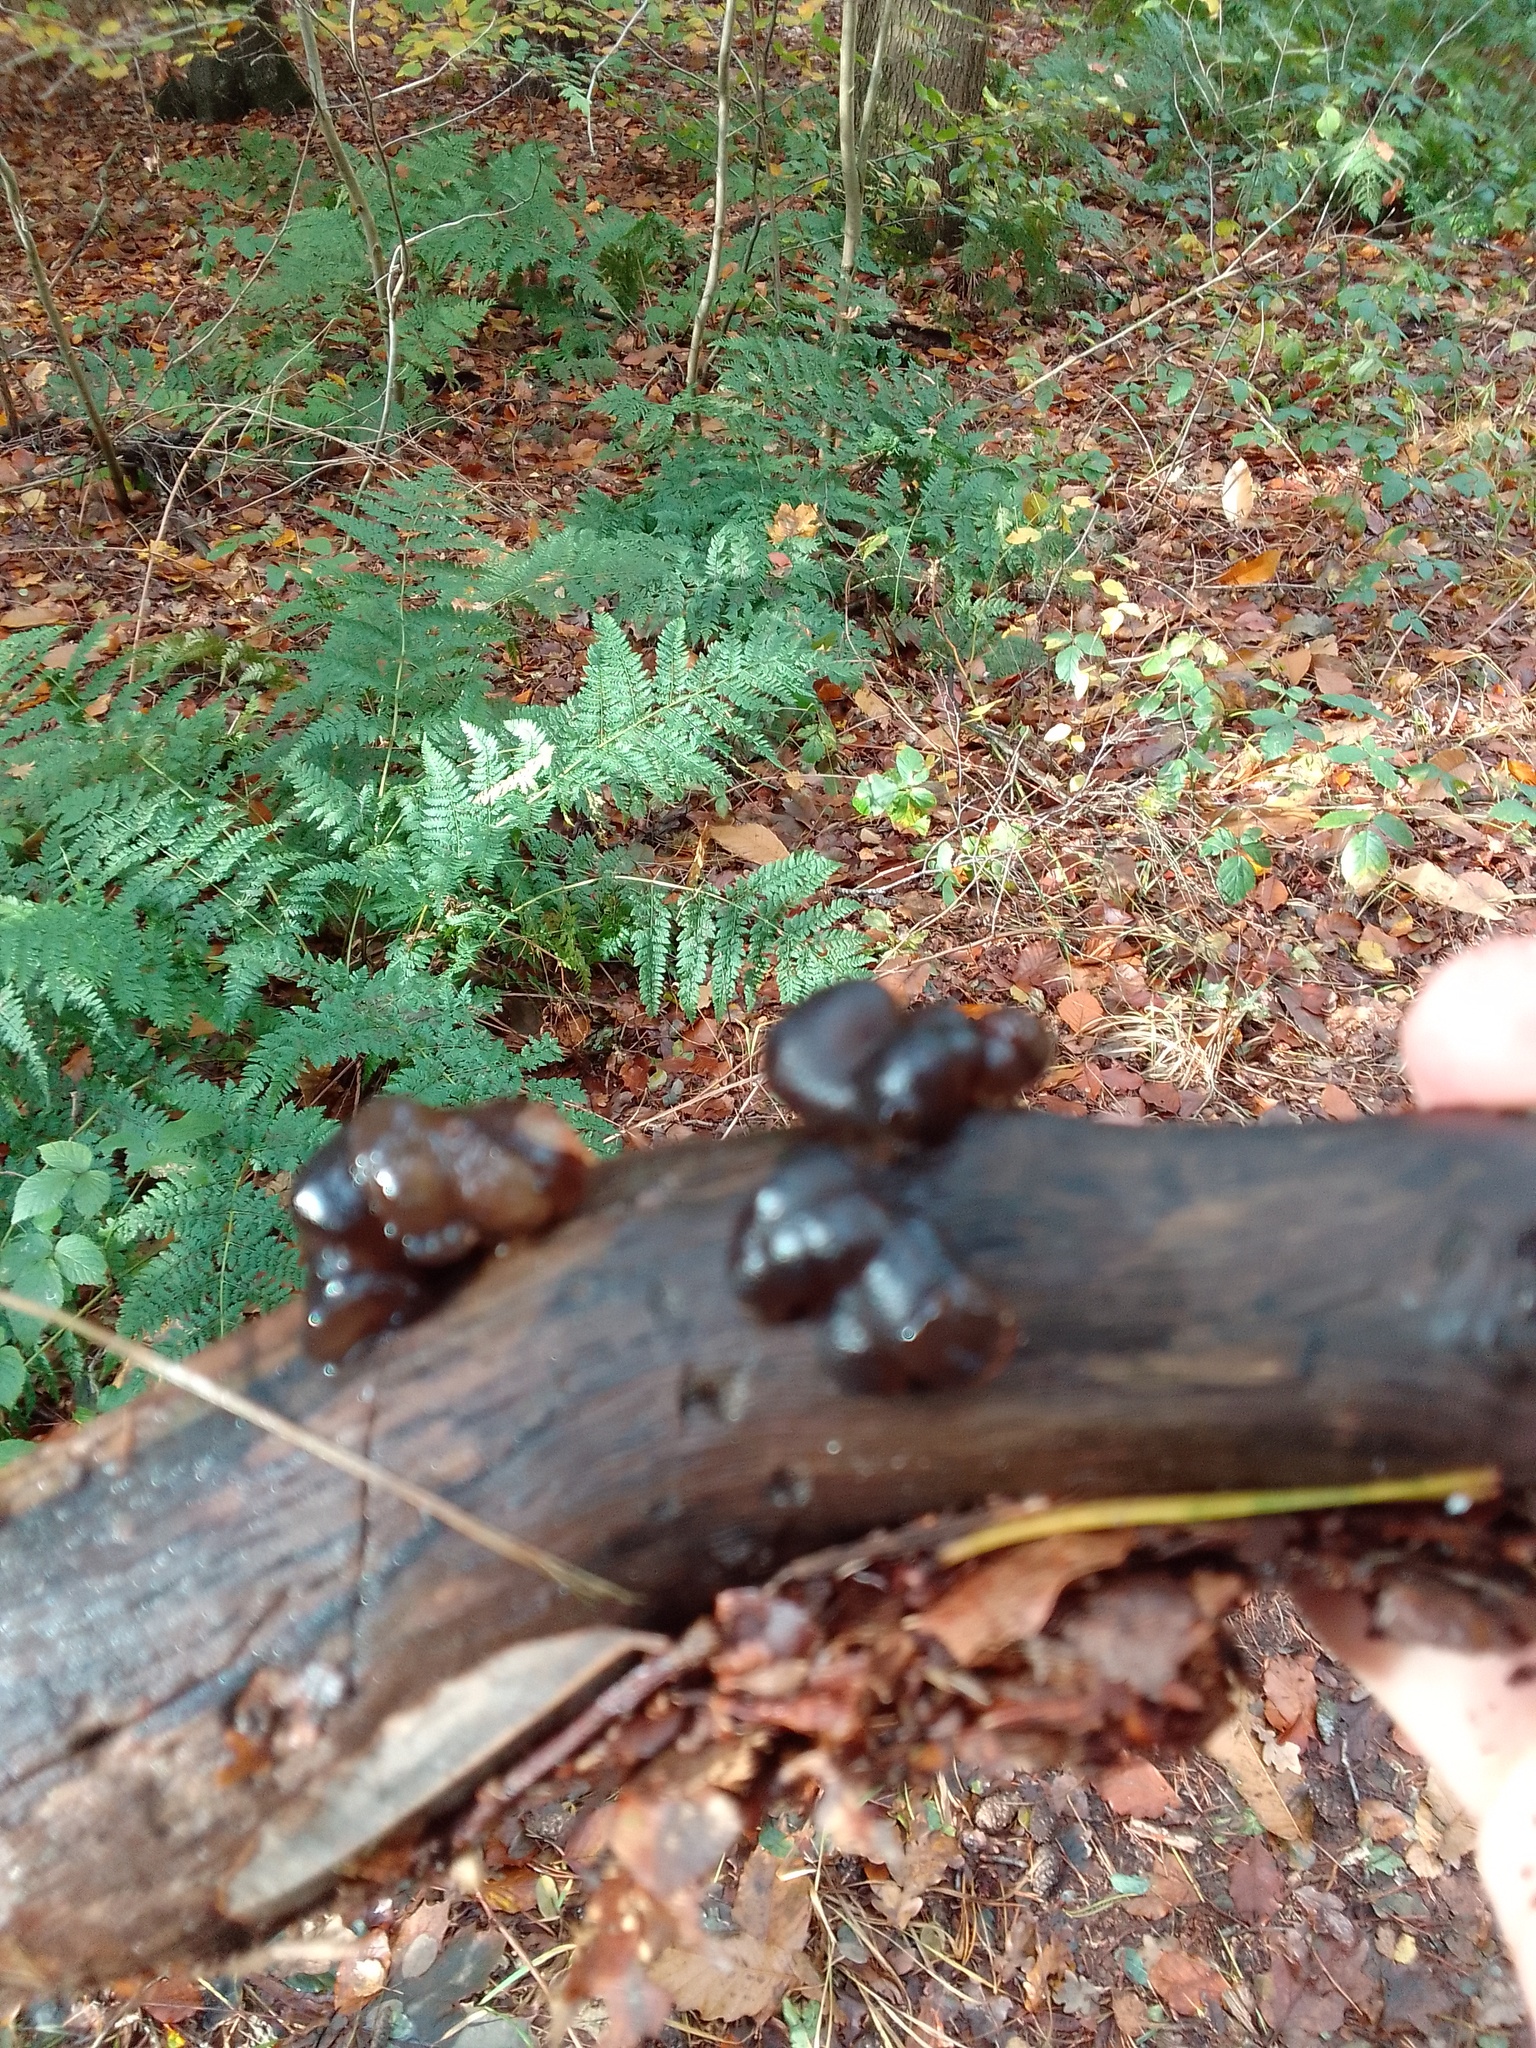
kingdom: Fungi
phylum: Basidiomycota
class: Agaricomycetes
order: Auriculariales
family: Auriculariaceae
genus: Exidia
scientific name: Exidia glandulosa
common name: Witches' butter
